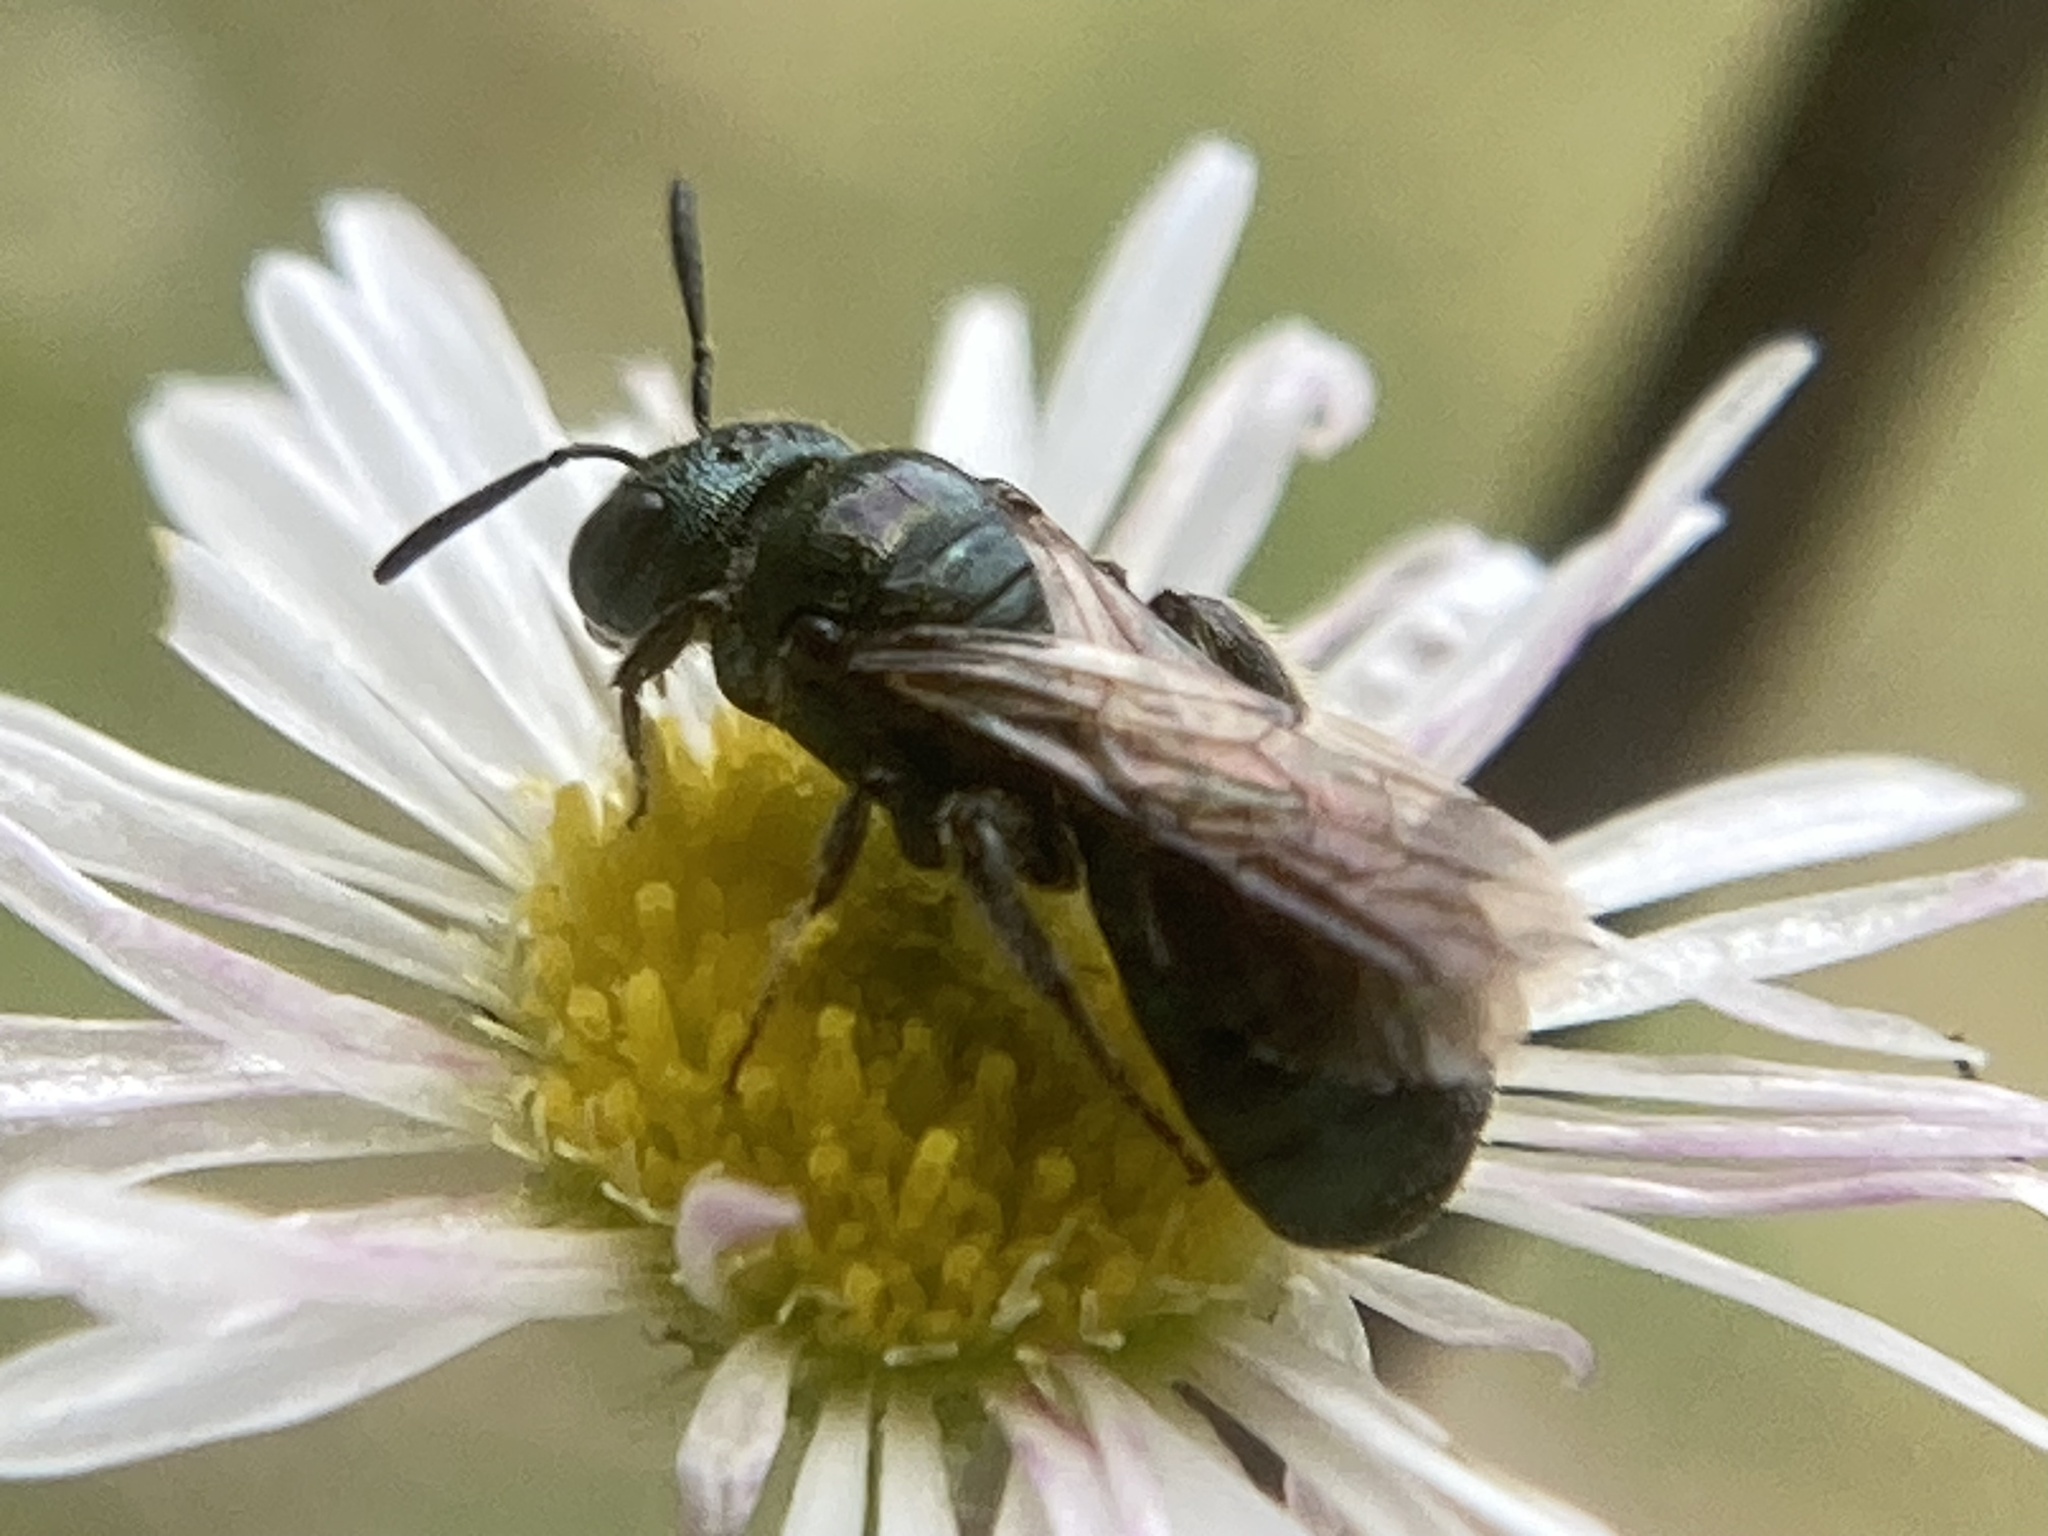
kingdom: Animalia
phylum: Arthropoda
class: Insecta
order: Hymenoptera
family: Apidae
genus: Zadontomerus
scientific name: Zadontomerus
